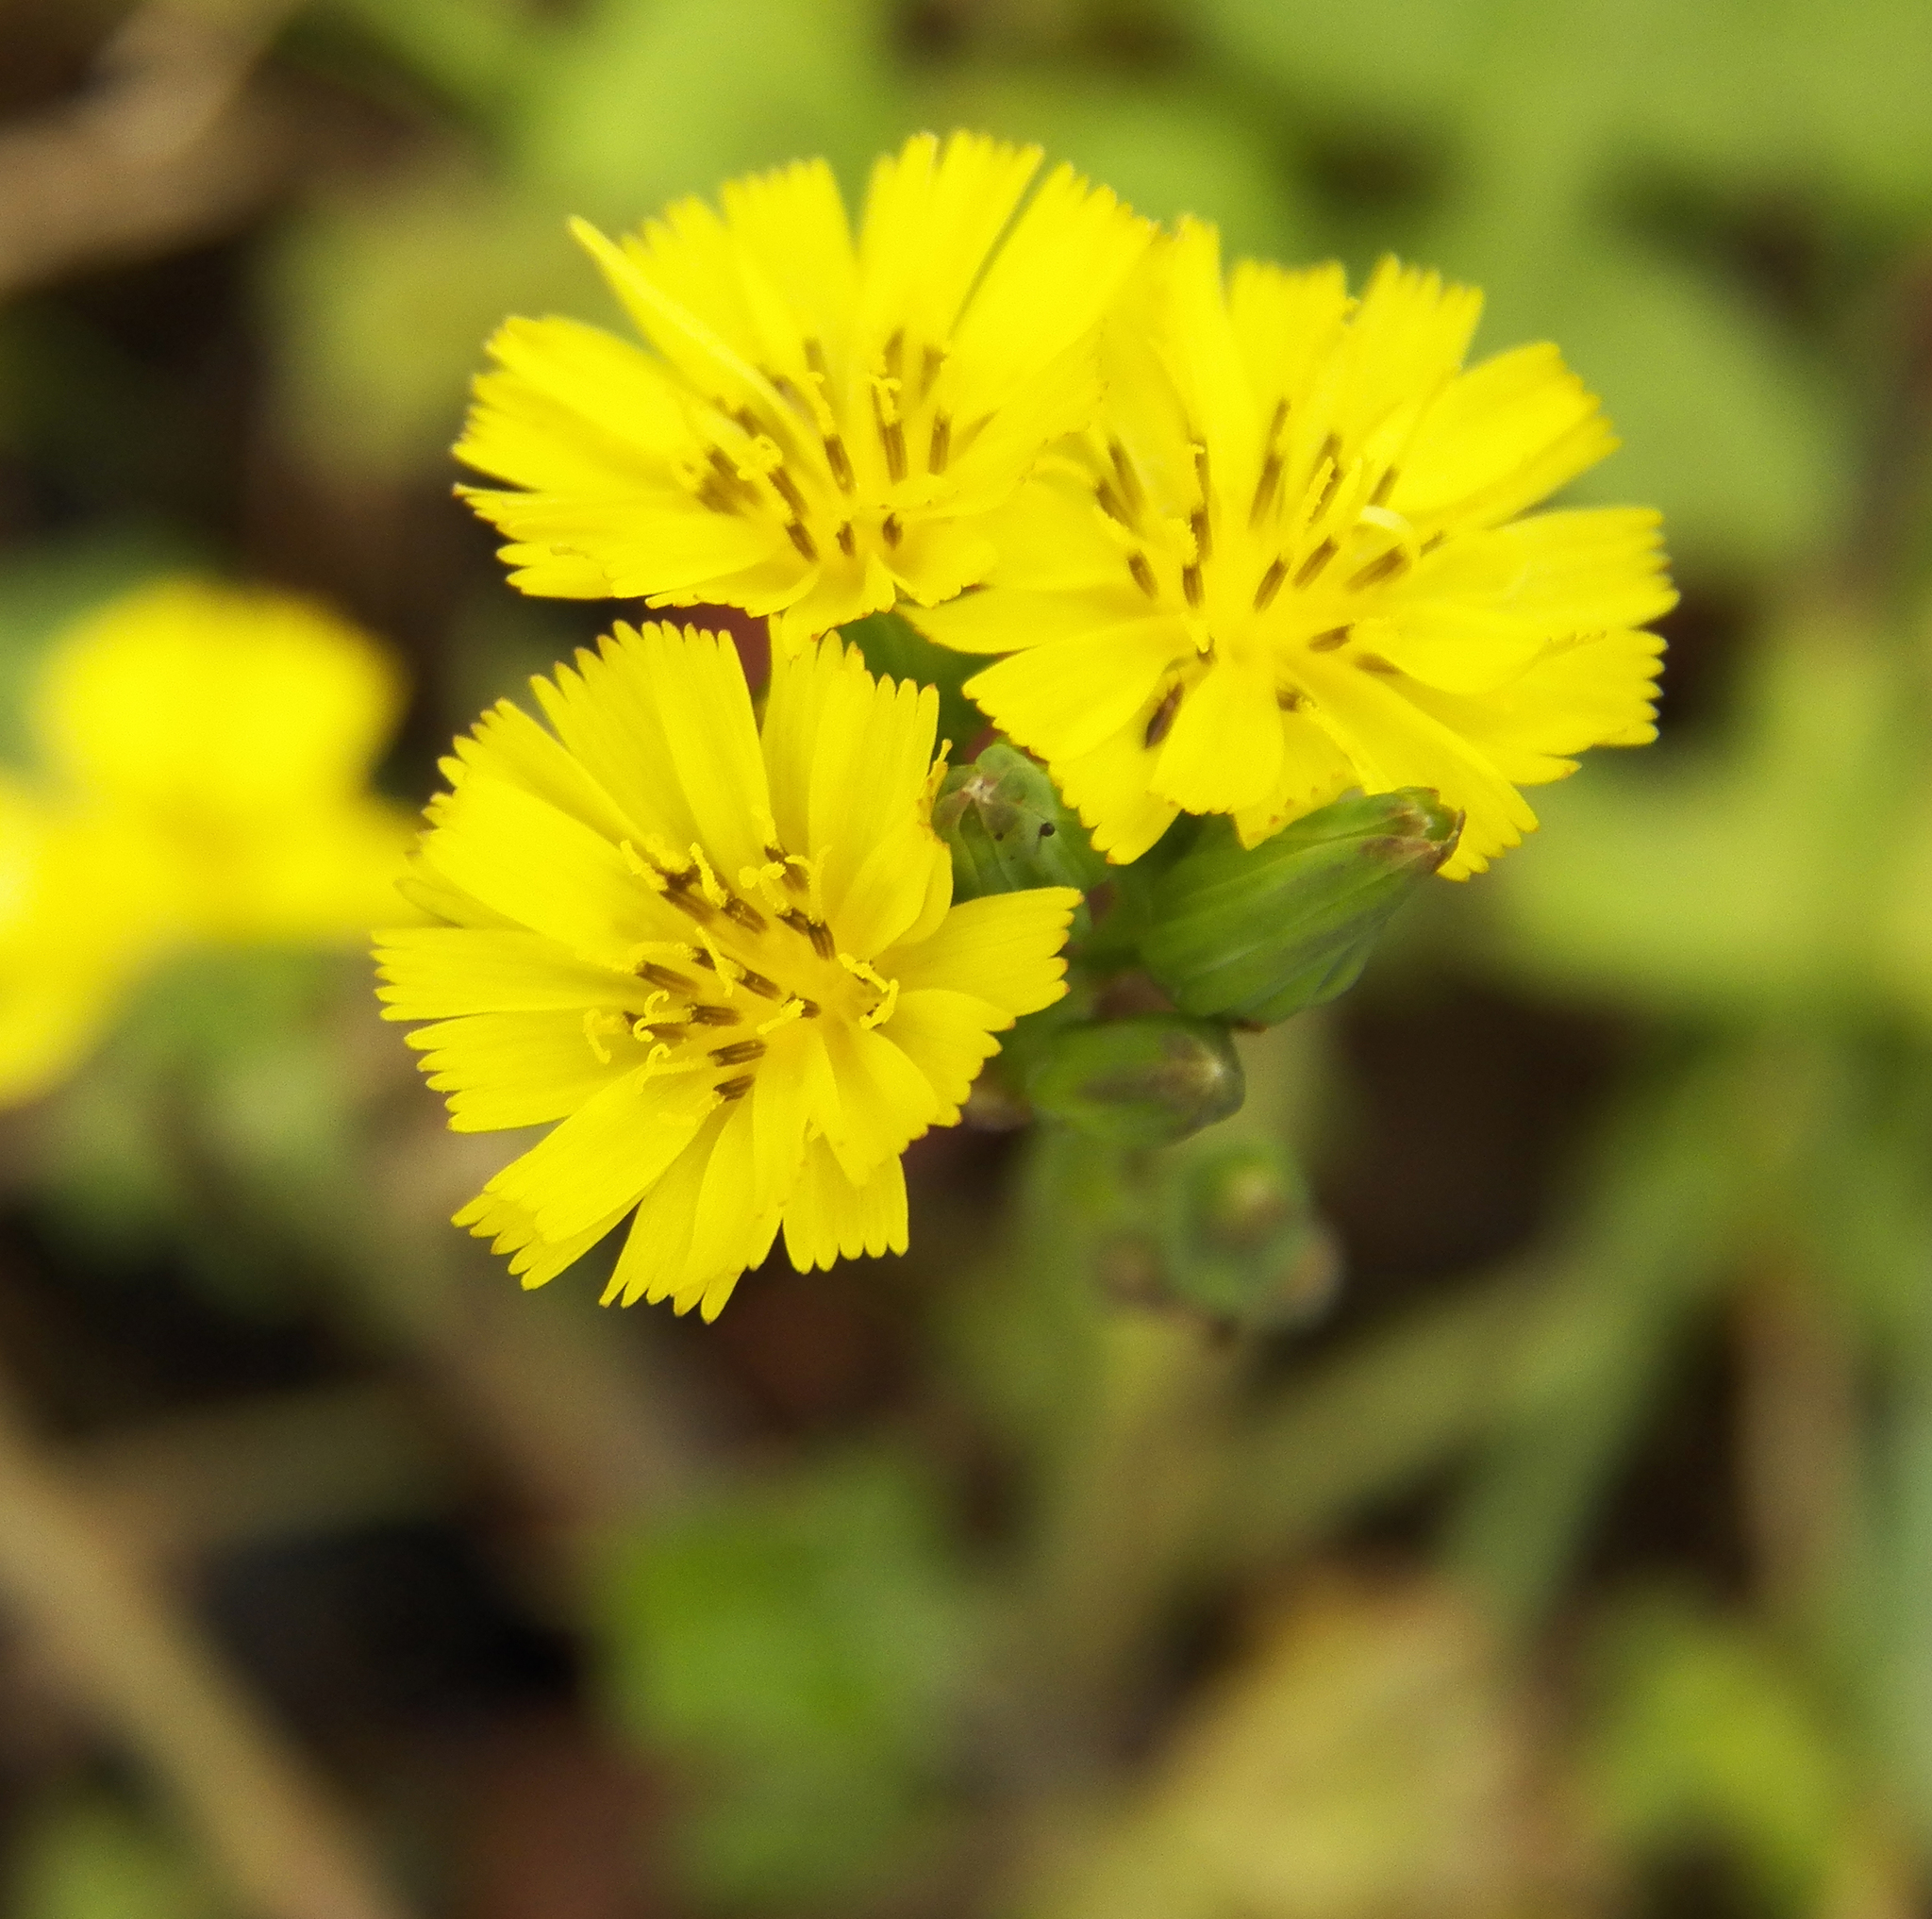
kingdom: Plantae
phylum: Tracheophyta
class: Magnoliopsida
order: Asterales
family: Asteraceae
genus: Youngia
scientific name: Youngia japonica
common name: Oriental false hawksbeard
